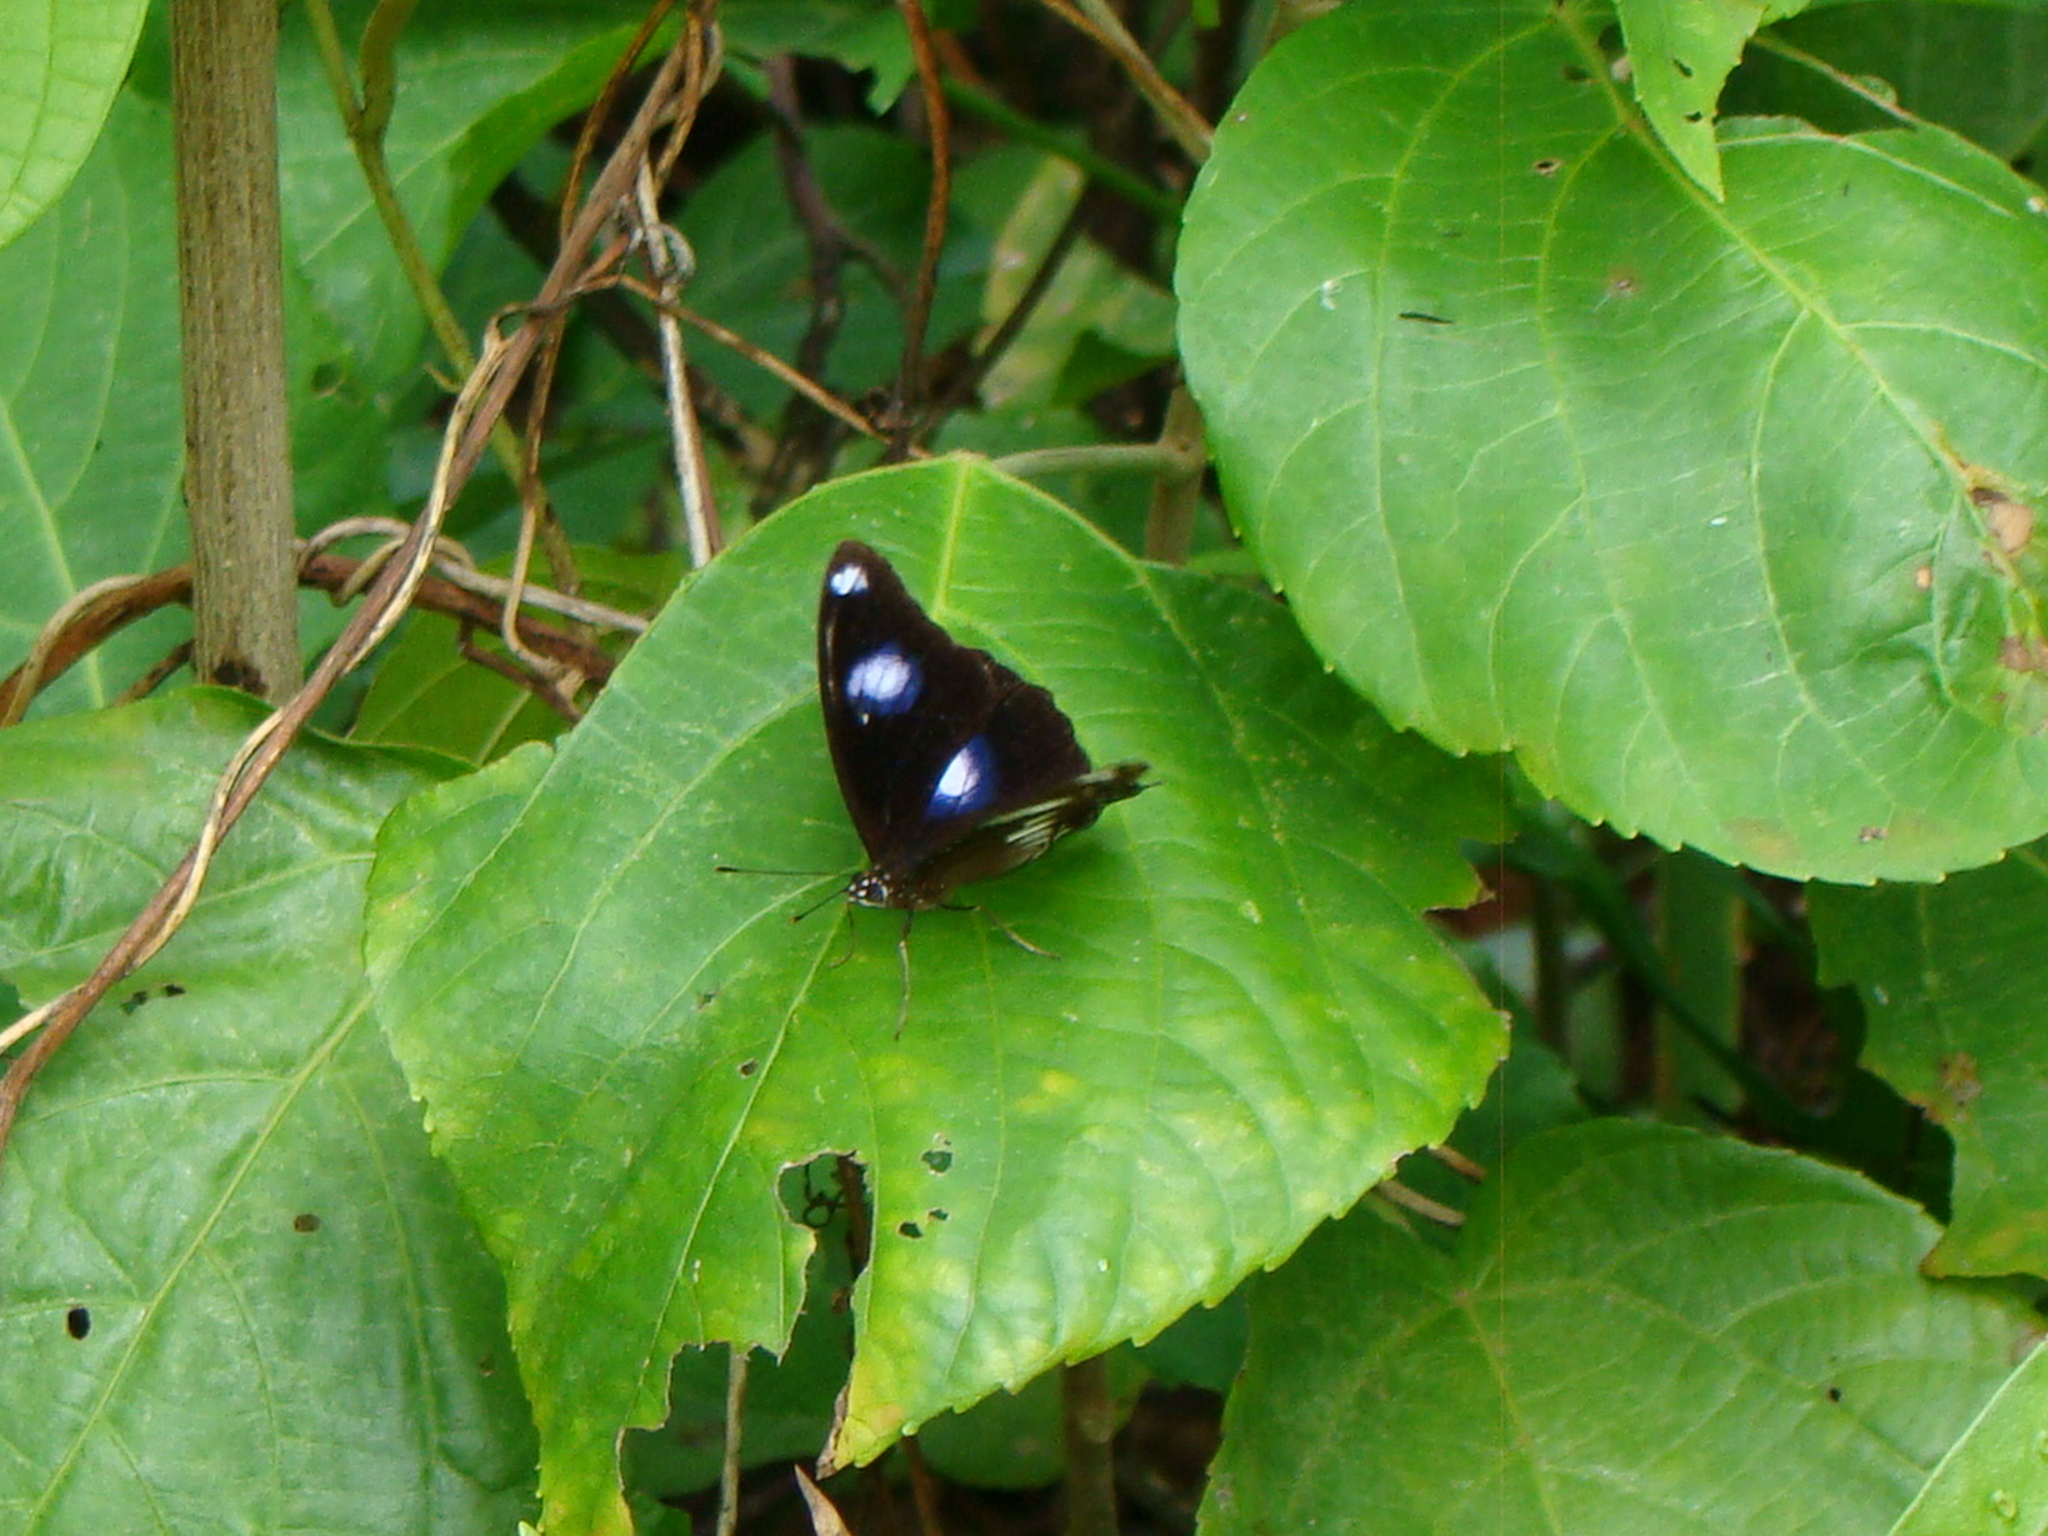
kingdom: Animalia
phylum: Arthropoda
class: Insecta
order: Lepidoptera
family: Nymphalidae
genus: Hypolimnas
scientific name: Hypolimnas bolina
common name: Great eggfly
